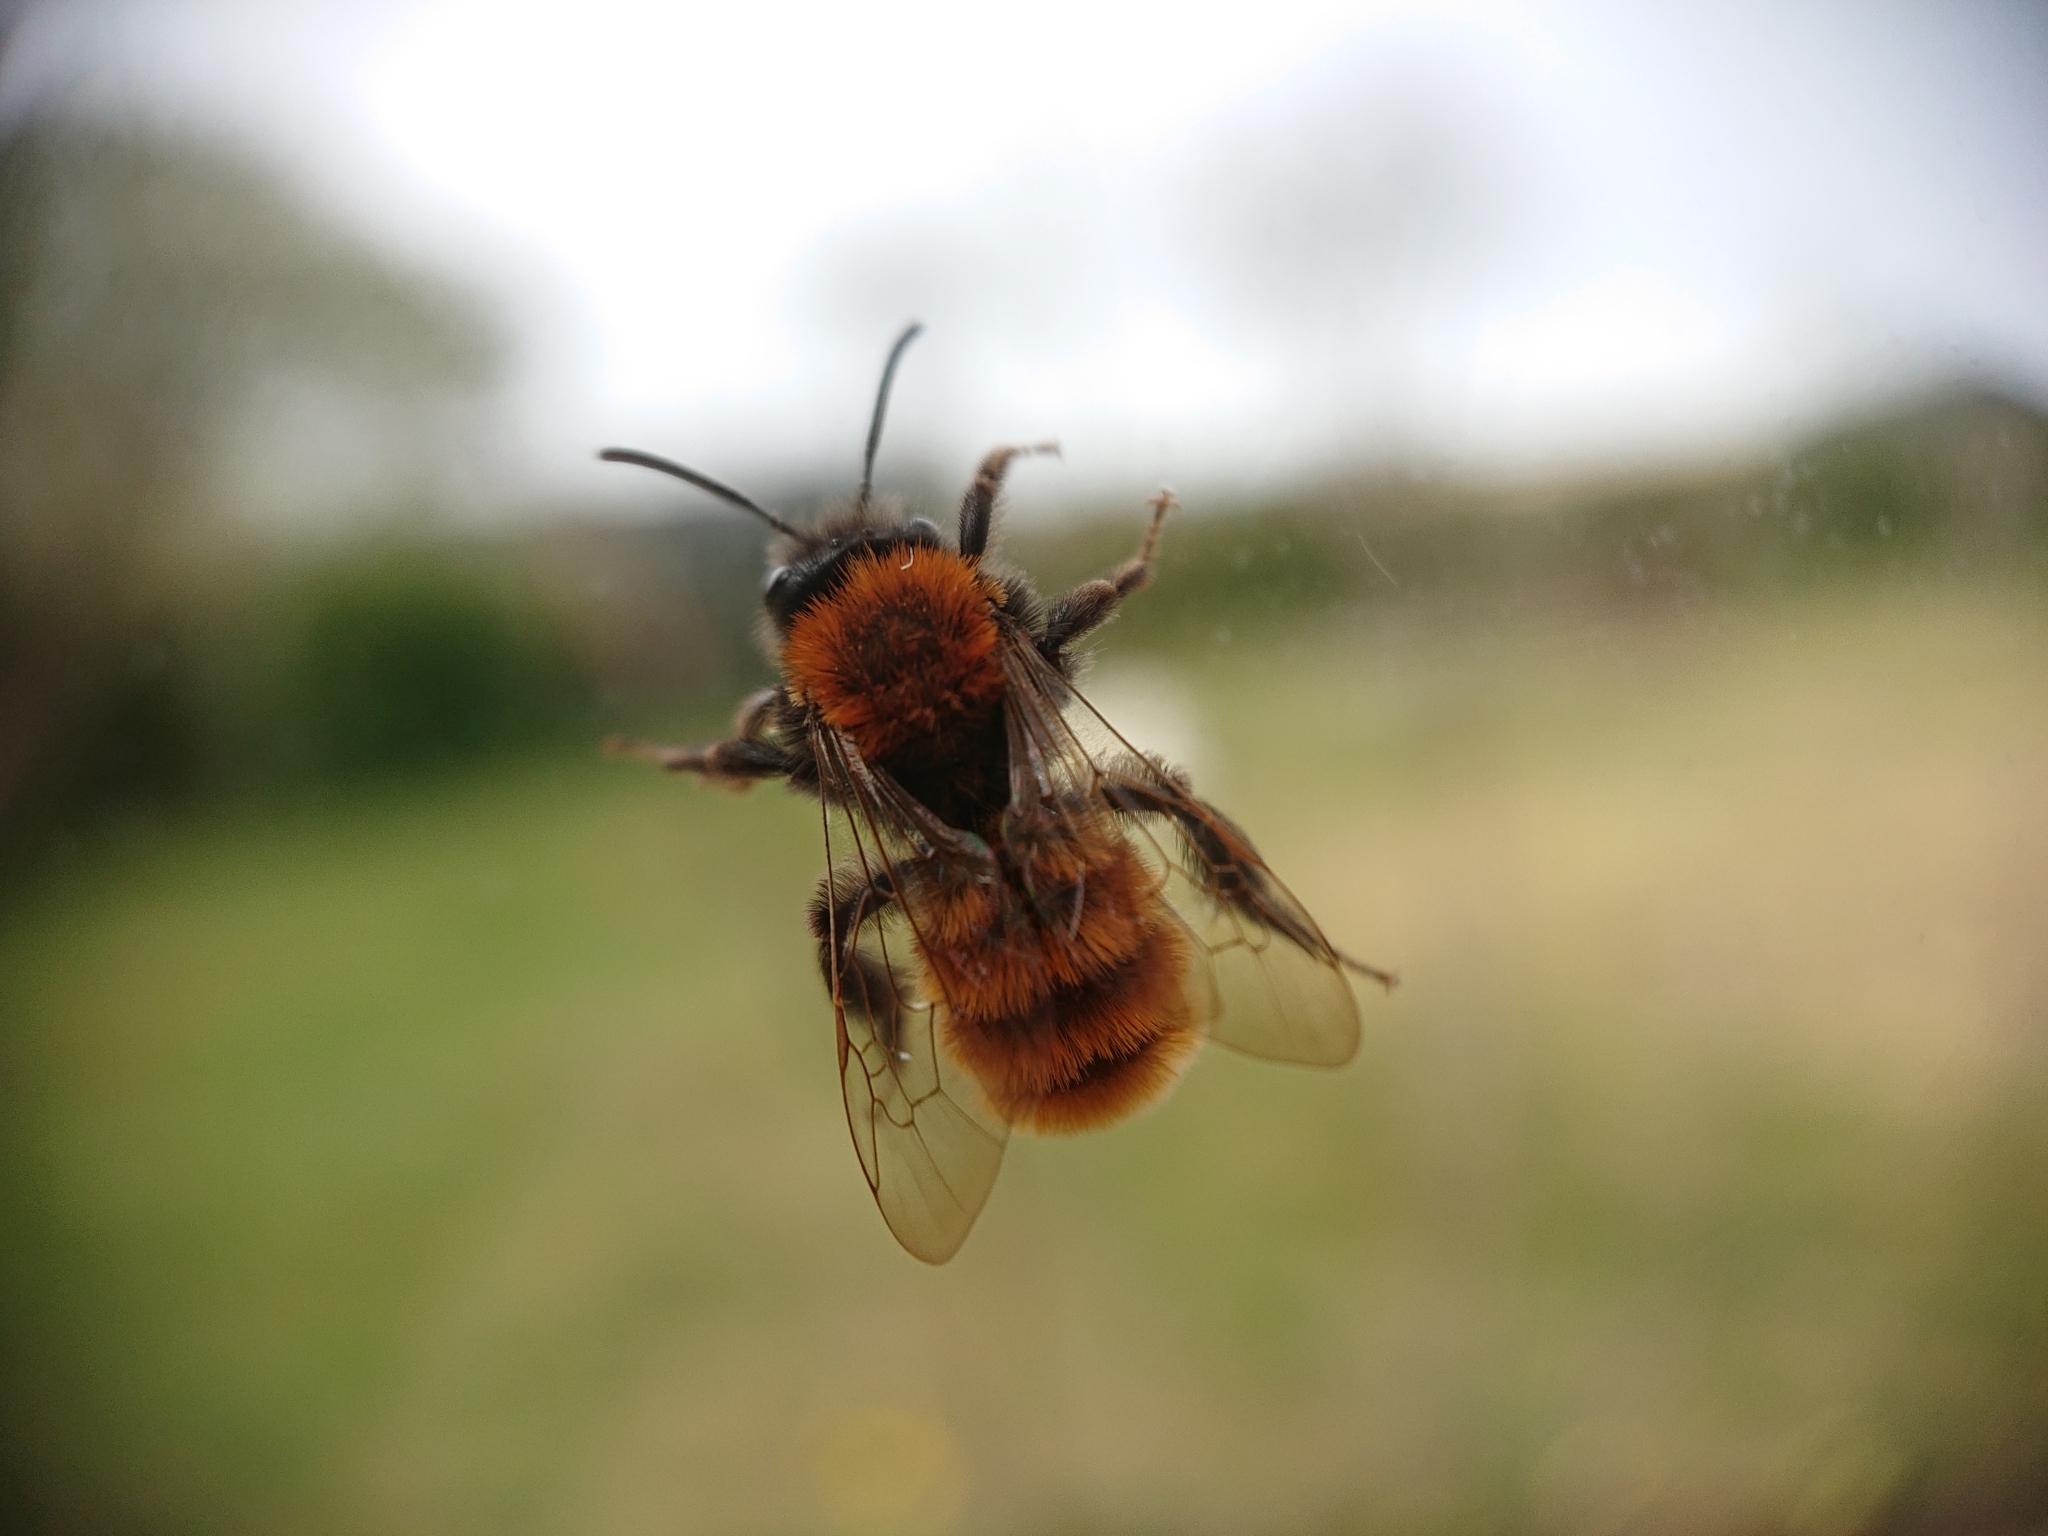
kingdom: Animalia
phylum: Arthropoda
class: Insecta
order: Hymenoptera
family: Andrenidae
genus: Andrena
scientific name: Andrena fulva
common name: Tawny mining bee
